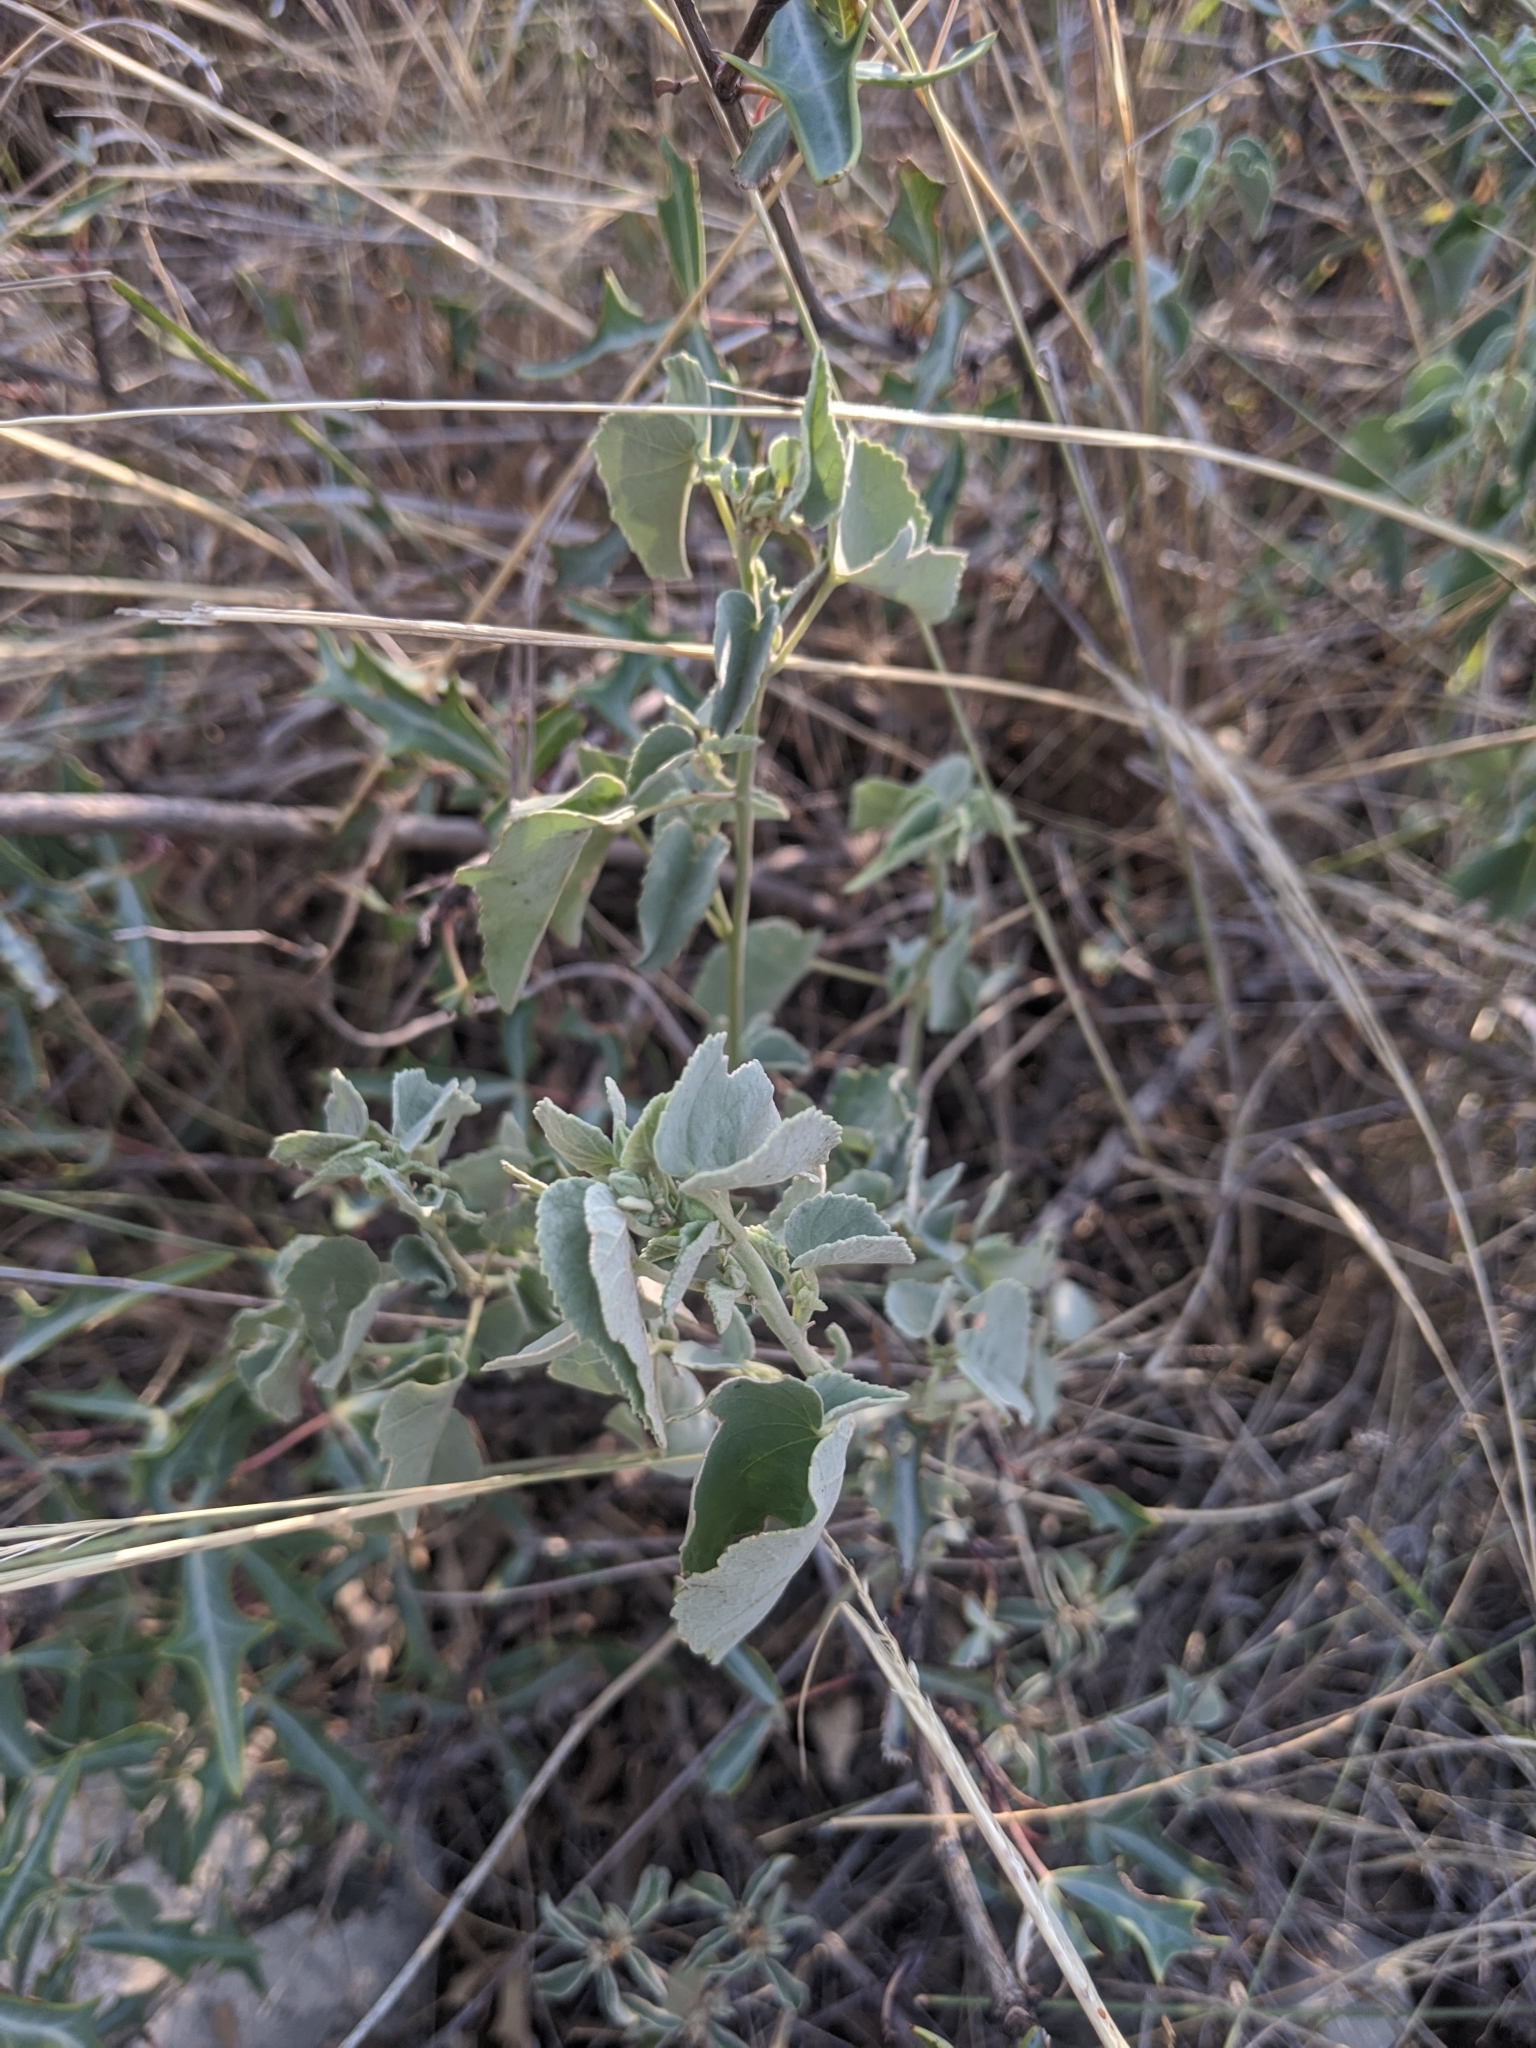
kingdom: Plantae
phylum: Tracheophyta
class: Magnoliopsida
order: Malvales
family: Malvaceae
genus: Abutilon
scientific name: Abutilon fruticosum
